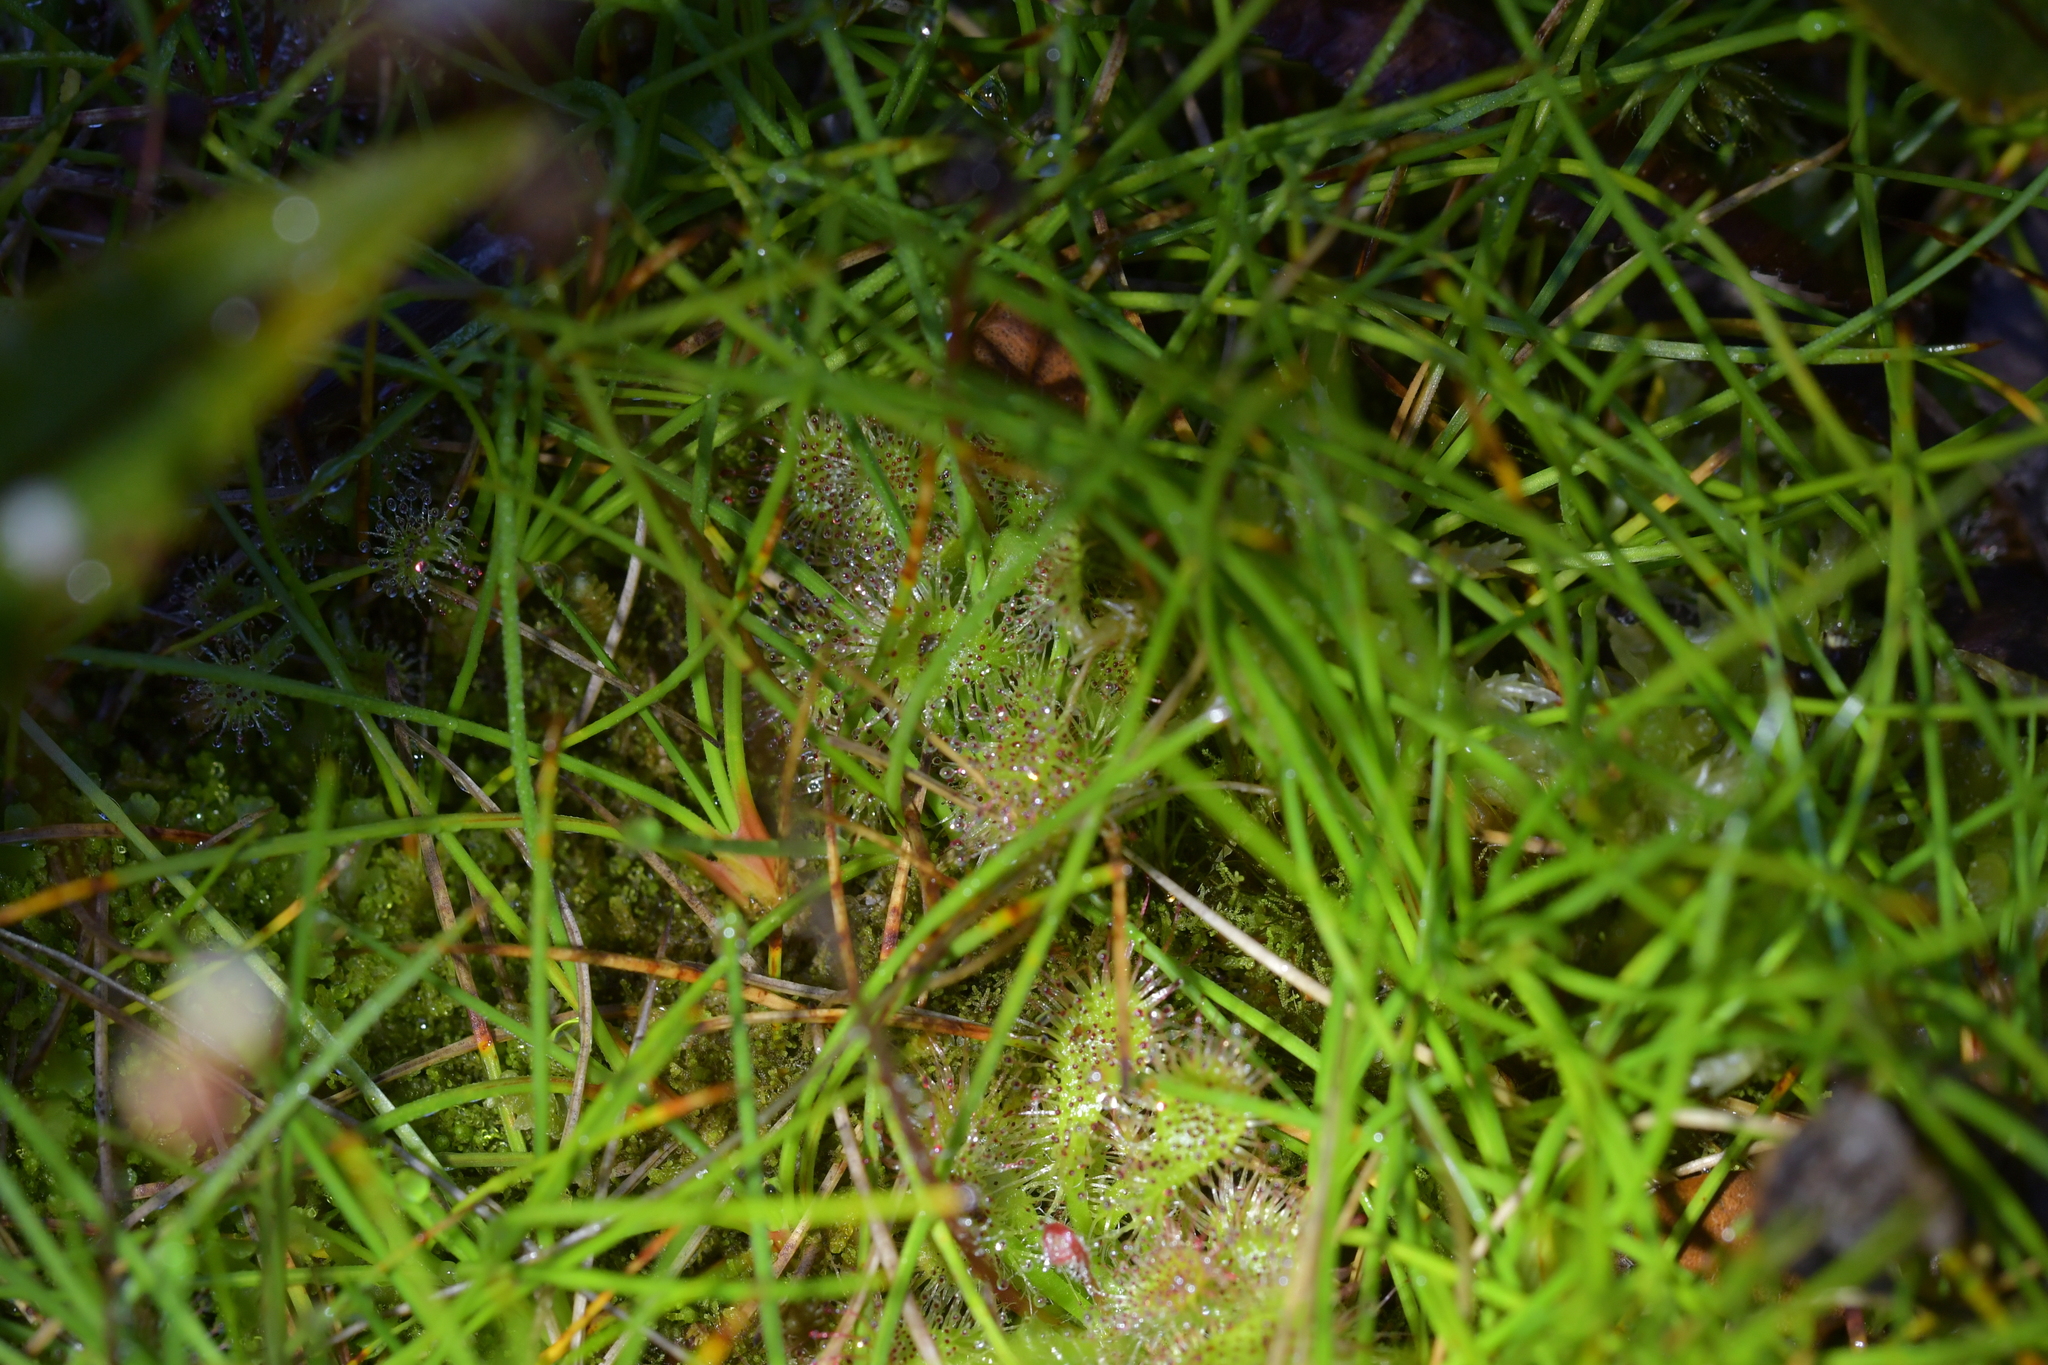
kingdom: Plantae
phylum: Tracheophyta
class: Magnoliopsida
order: Caryophyllales
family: Droseraceae
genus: Drosera
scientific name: Drosera spatulata
